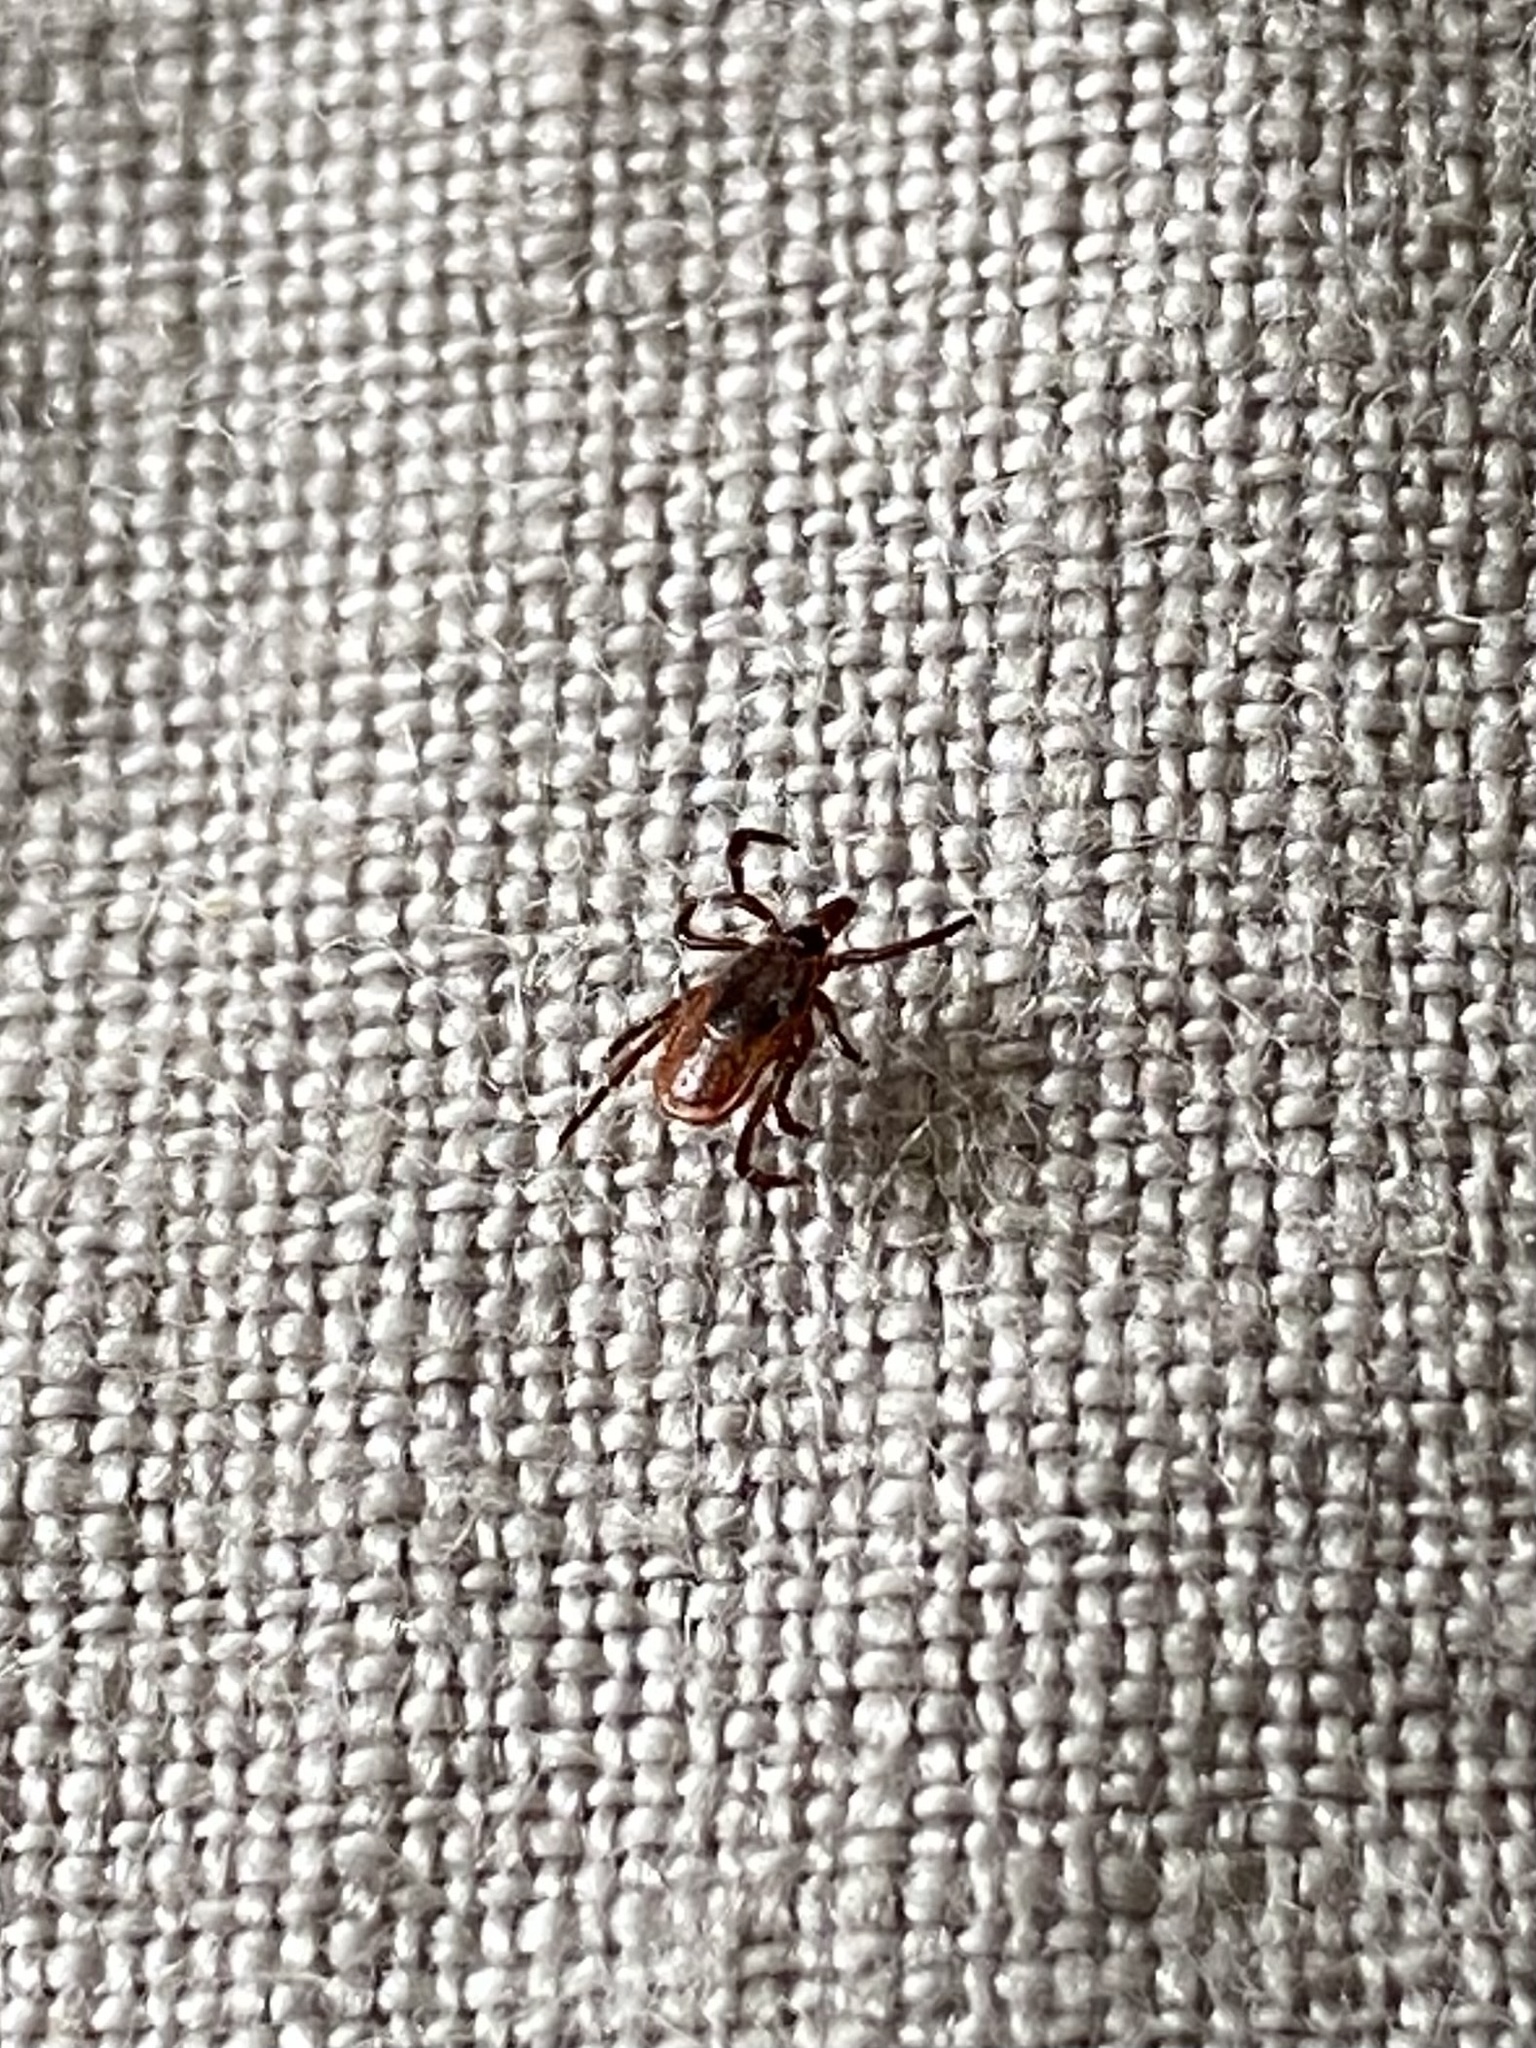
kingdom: Animalia
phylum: Arthropoda
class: Arachnida
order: Ixodida
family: Ixodidae
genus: Ixodes
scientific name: Ixodes scapularis
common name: Black legged tick
